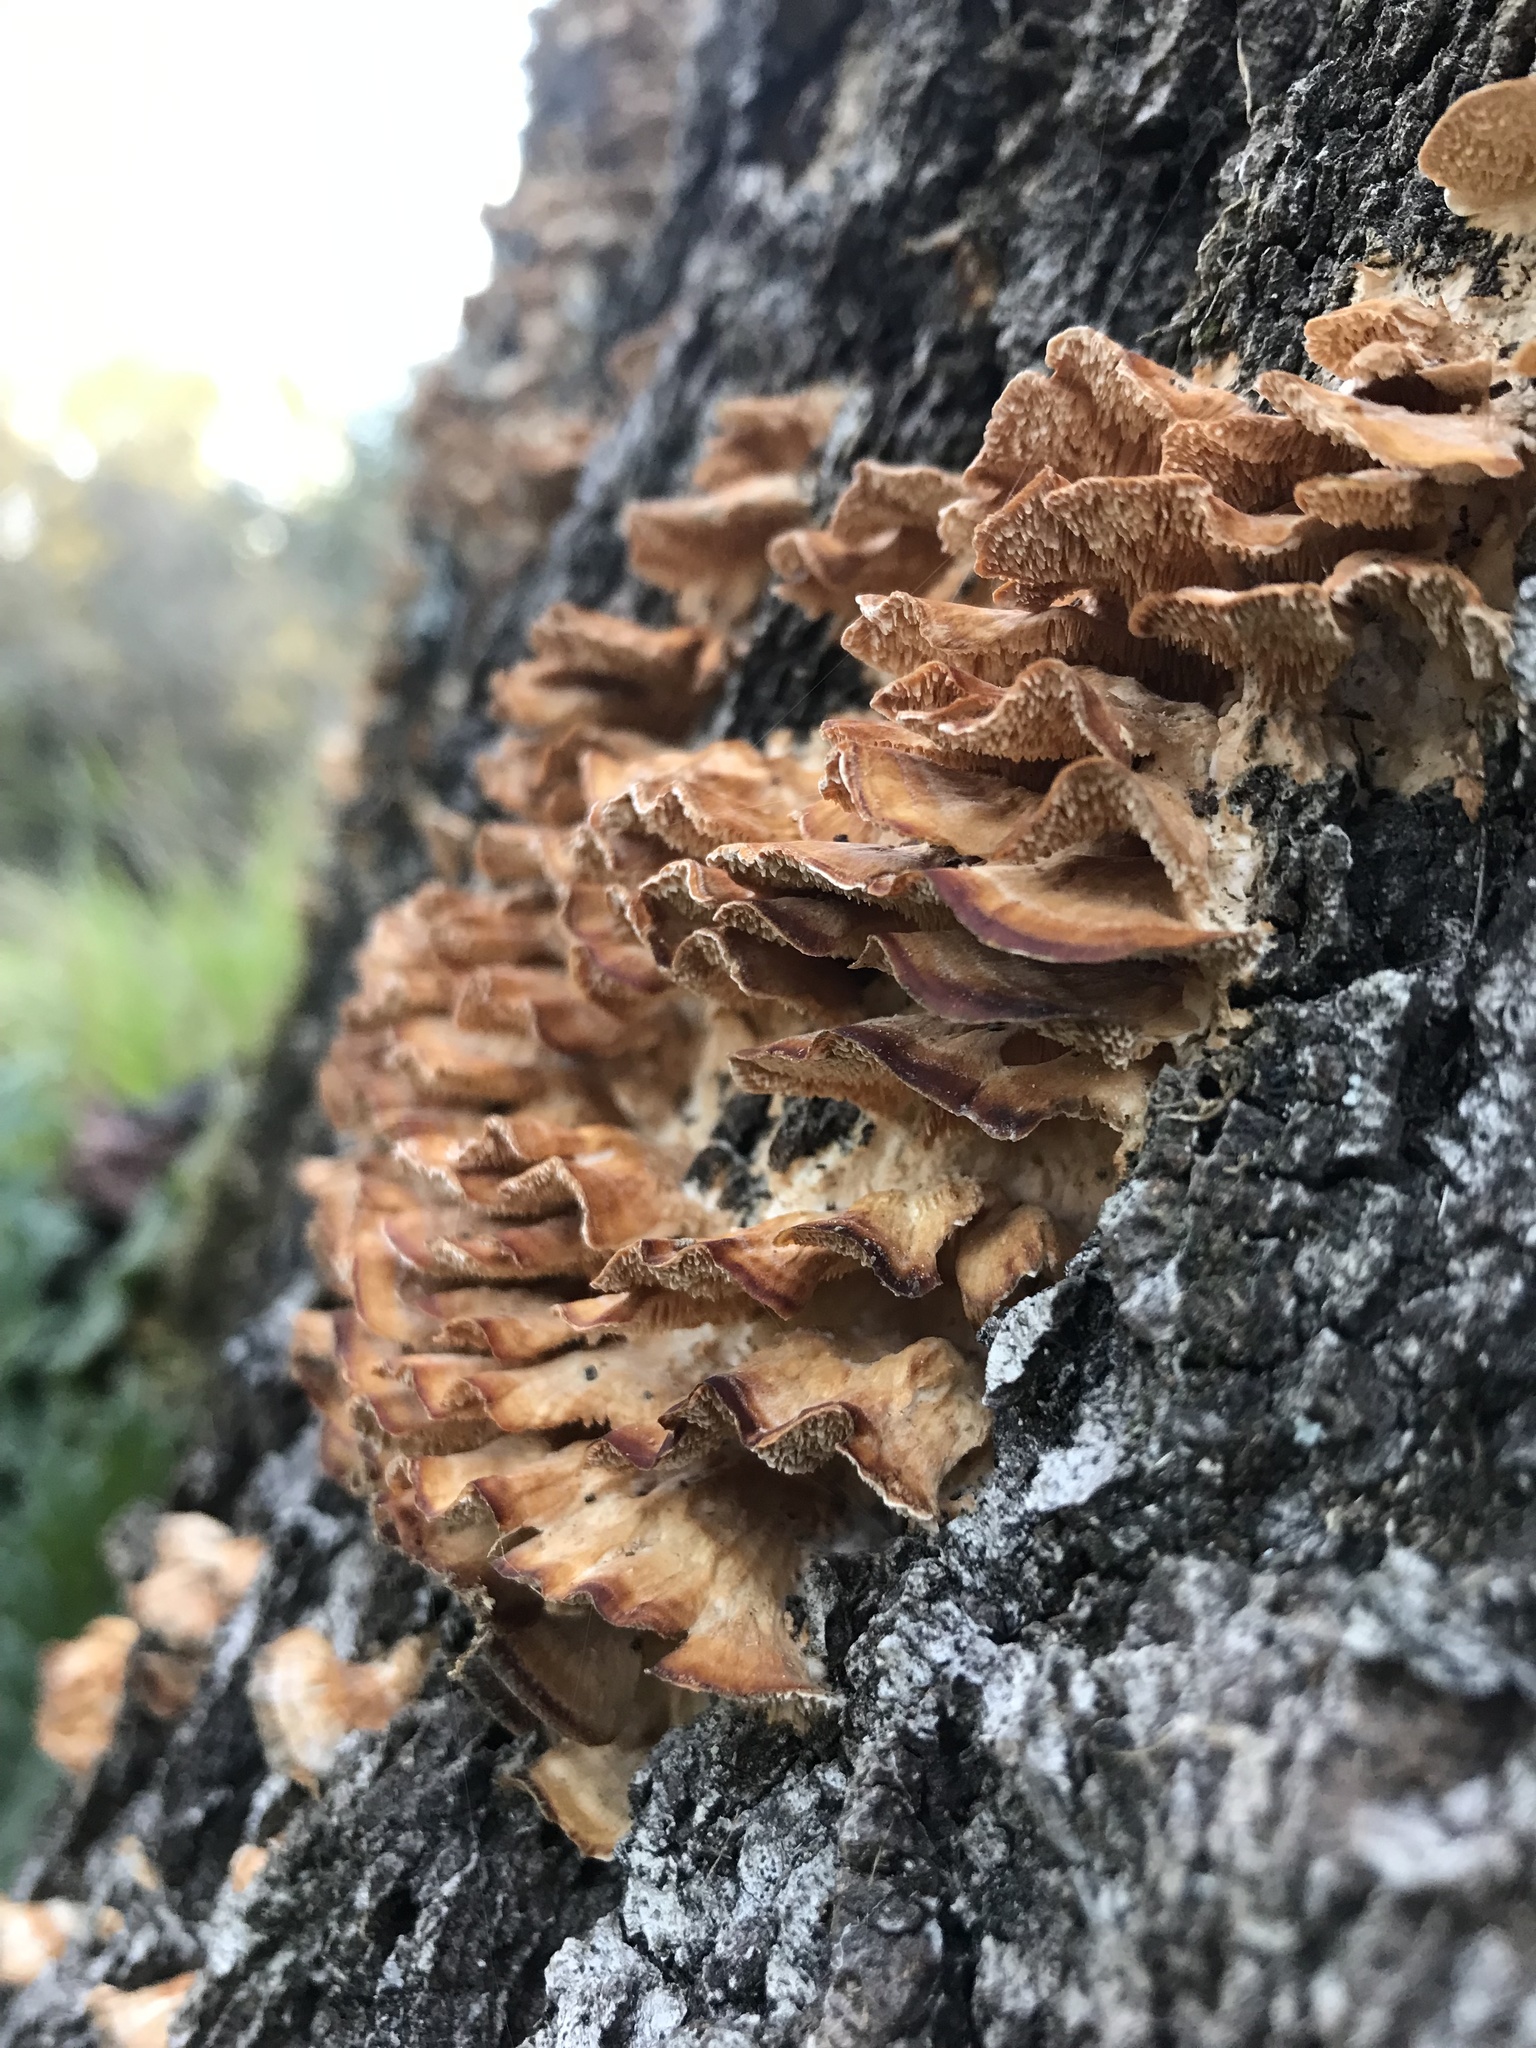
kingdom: Fungi
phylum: Basidiomycota
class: Agaricomycetes
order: Polyporales
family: Cerrenaceae
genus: Cerrena
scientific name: Cerrena zonata
